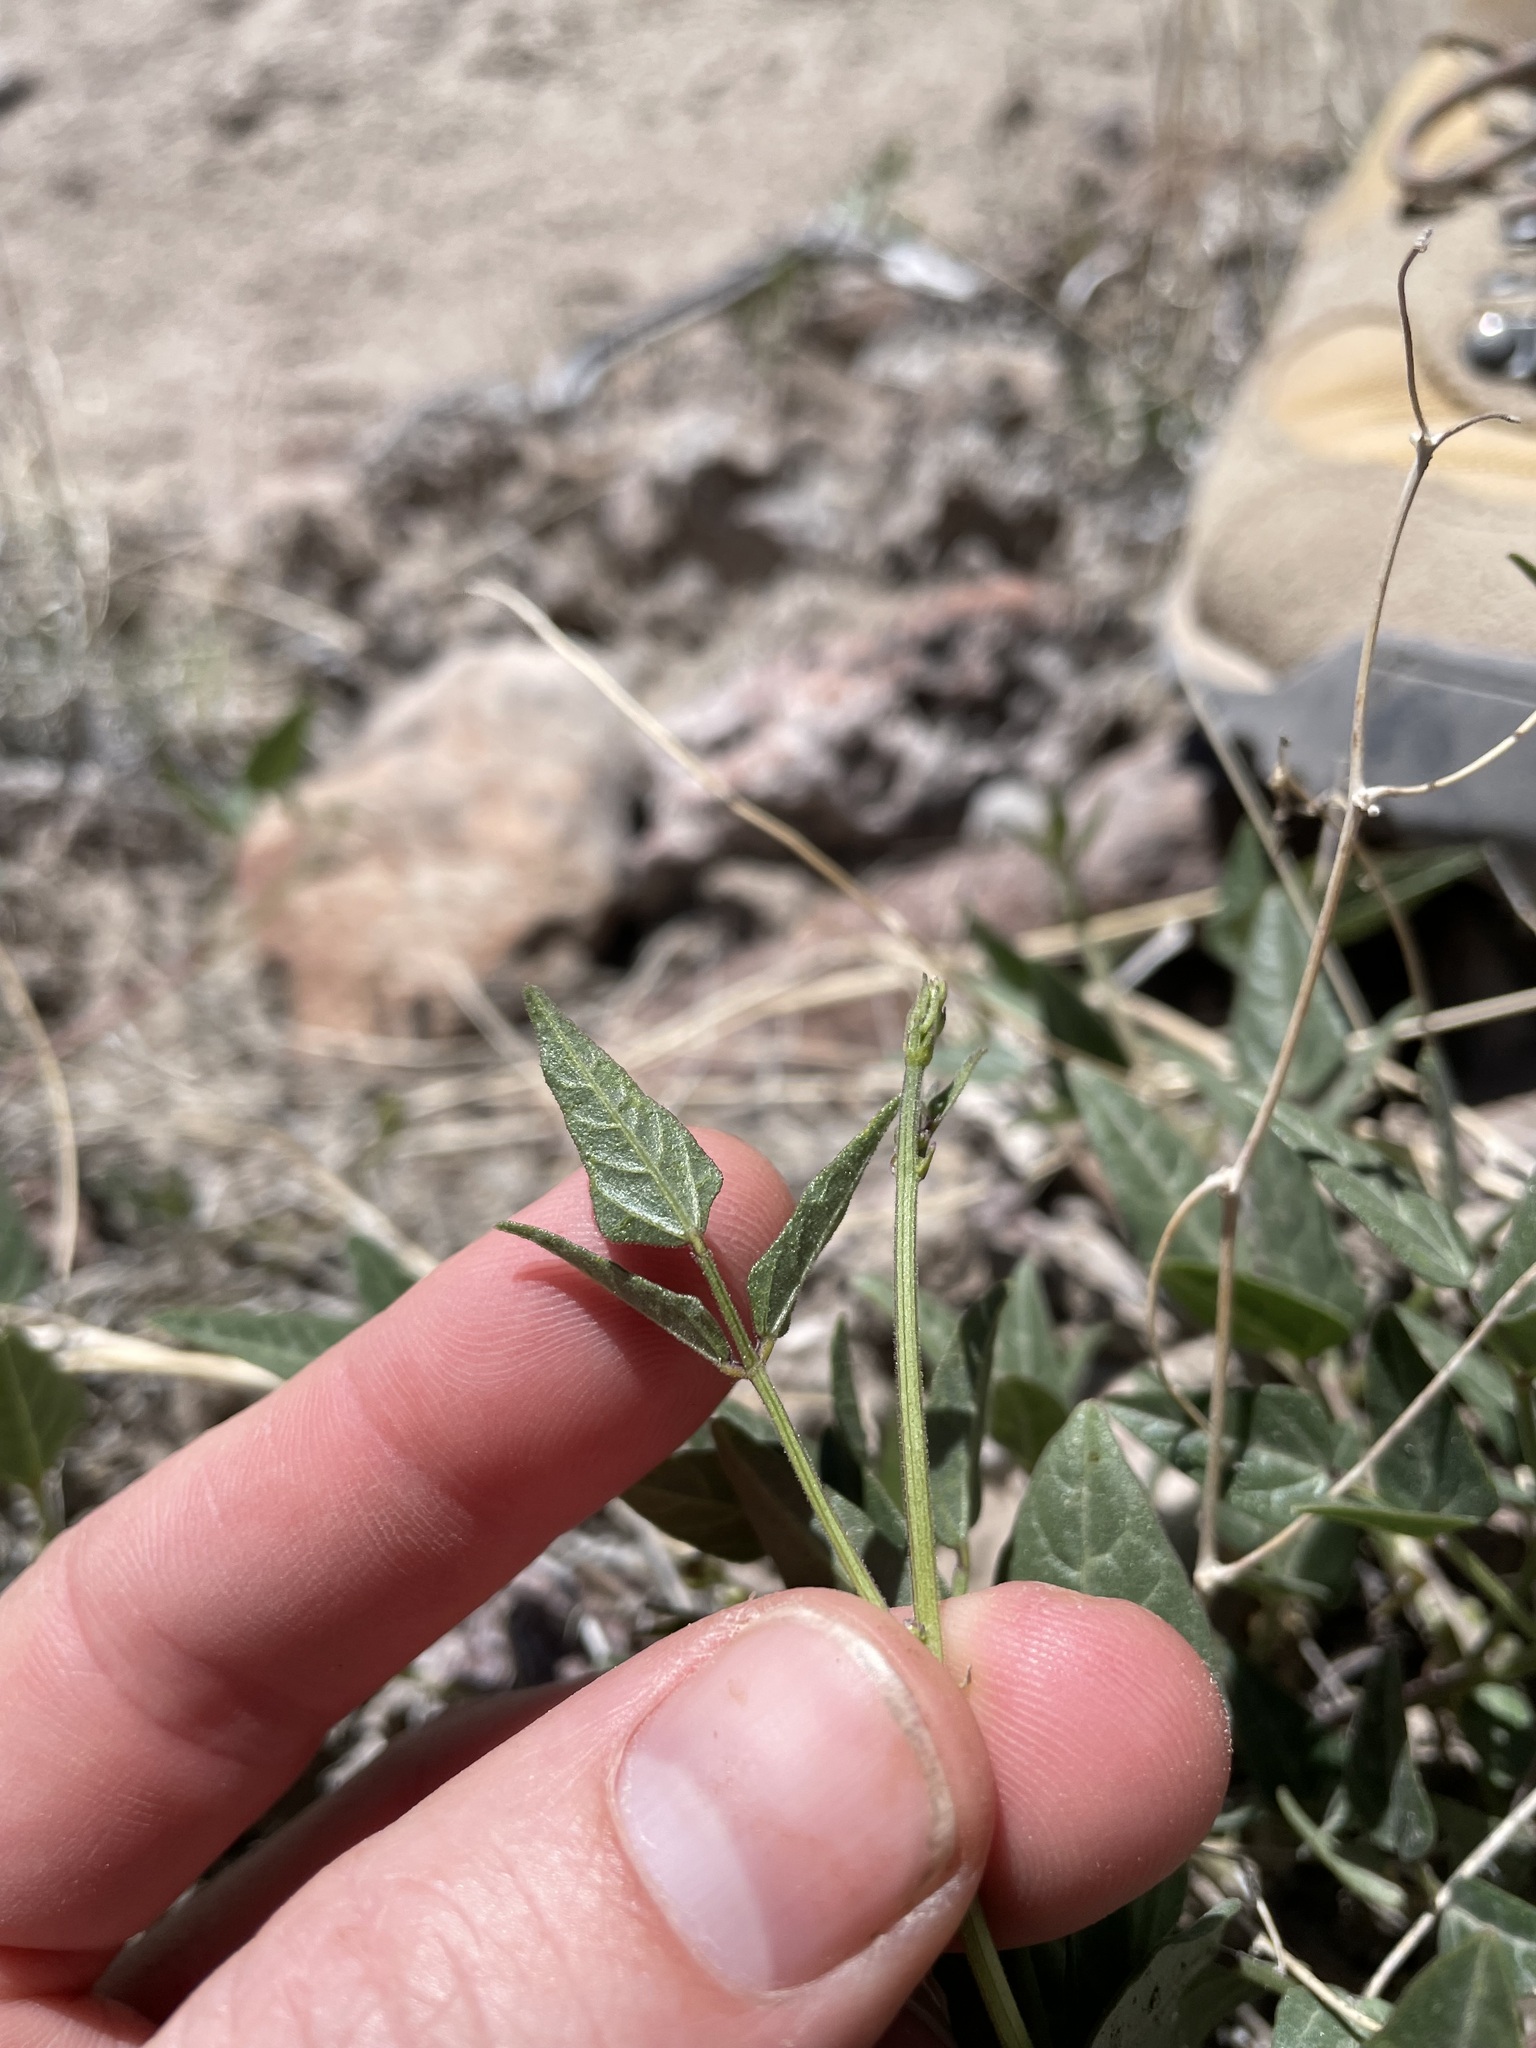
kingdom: Plantae
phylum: Tracheophyta
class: Magnoliopsida
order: Fabales
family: Fabaceae
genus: Phaseolus
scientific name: Phaseolus angustissimus
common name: Slimleaf bean
